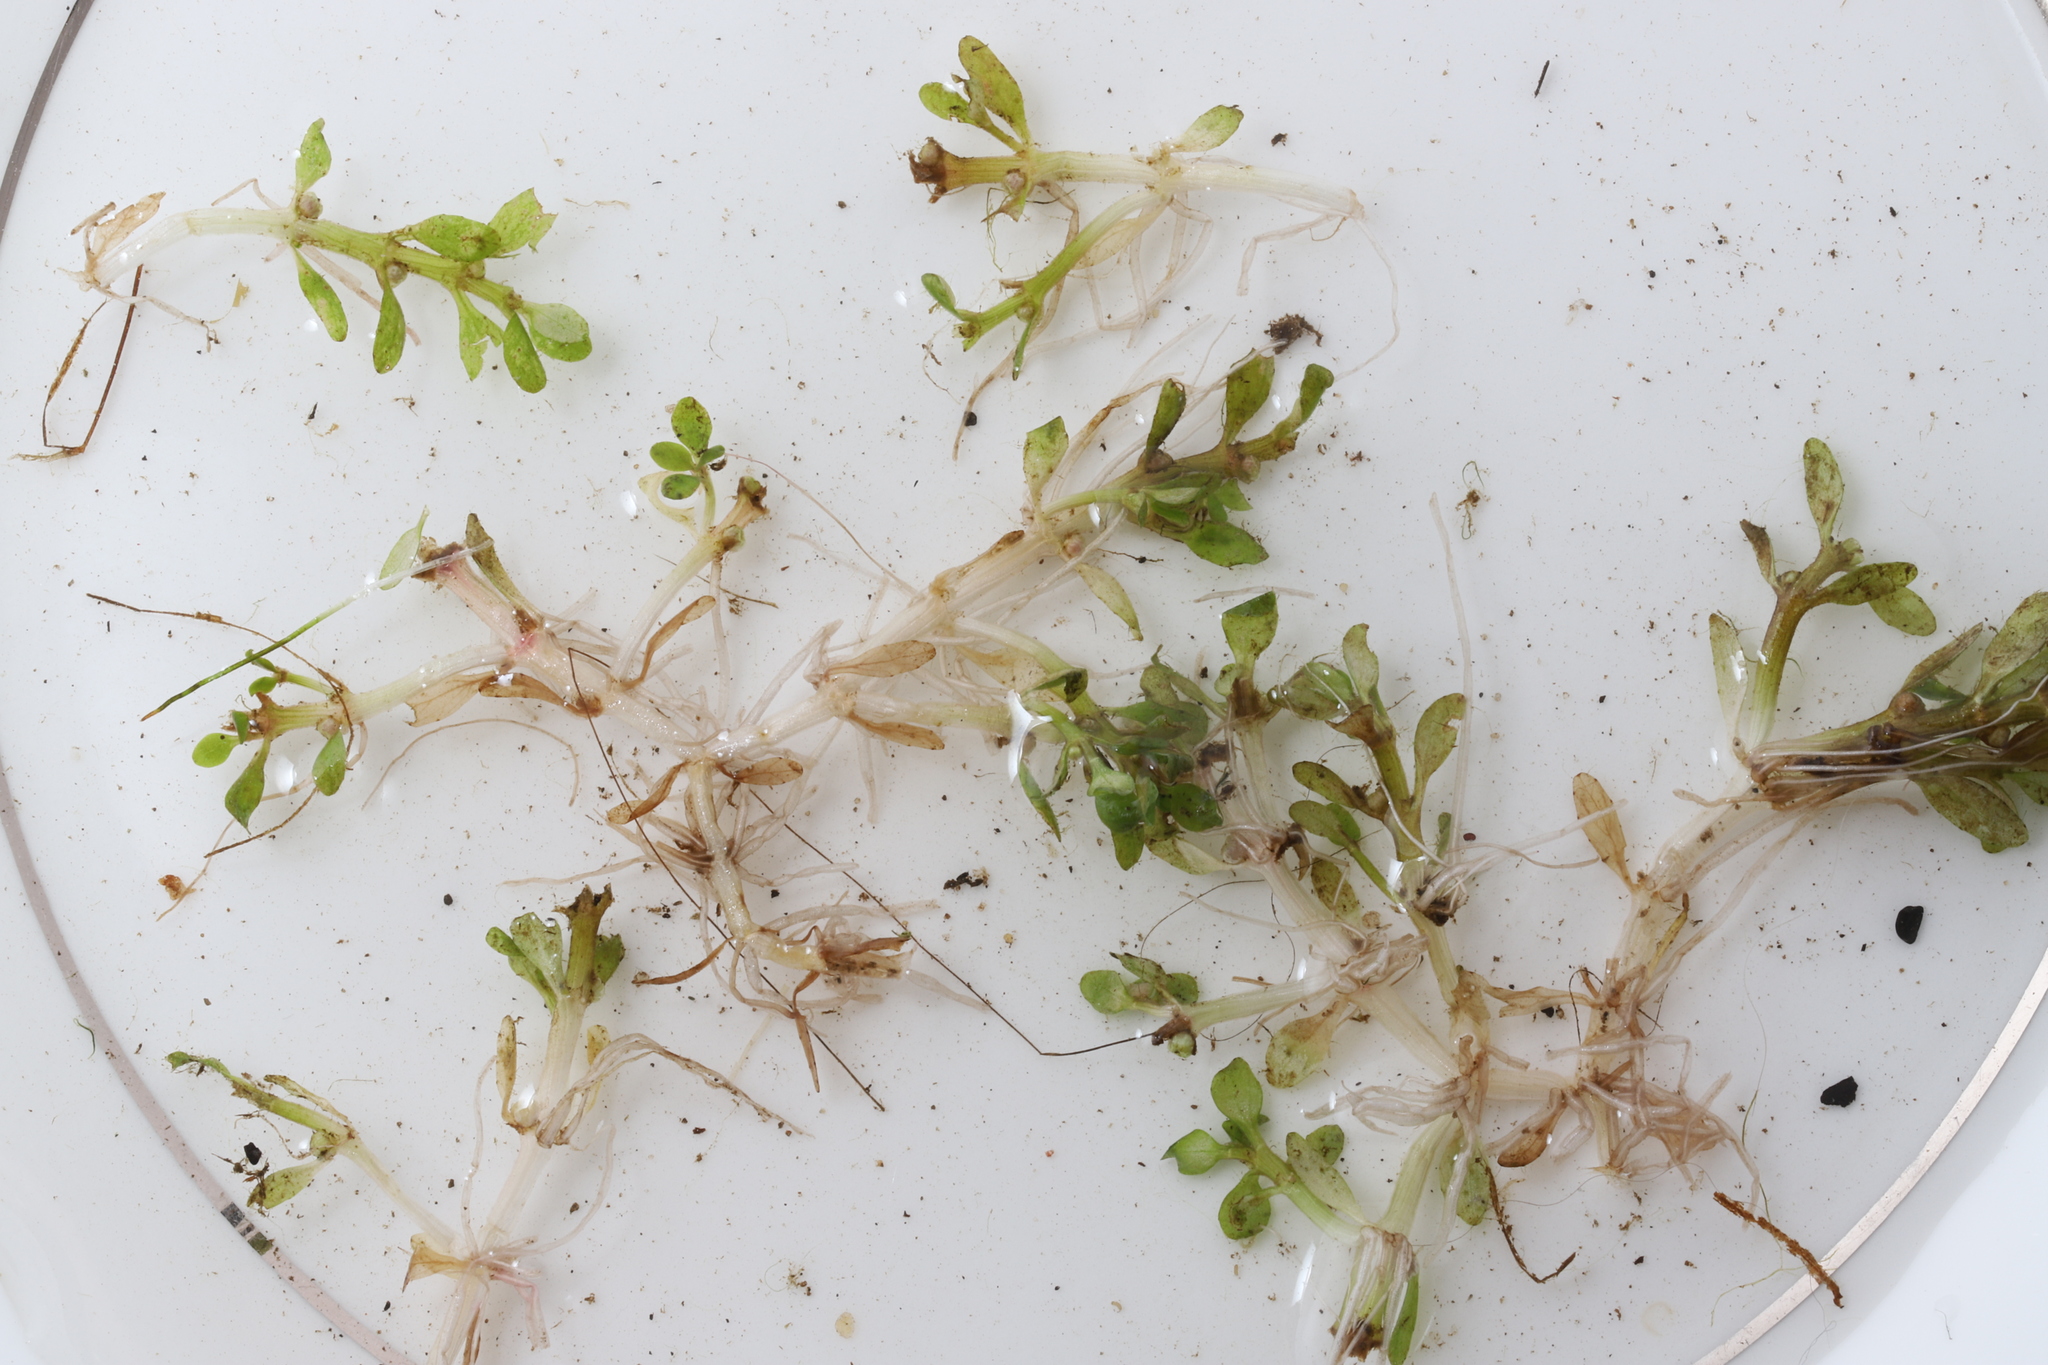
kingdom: Plantae
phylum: Tracheophyta
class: Magnoliopsida
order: Malpighiales
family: Elatinaceae
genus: Elatine
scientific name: Elatine americana
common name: American waterwort
